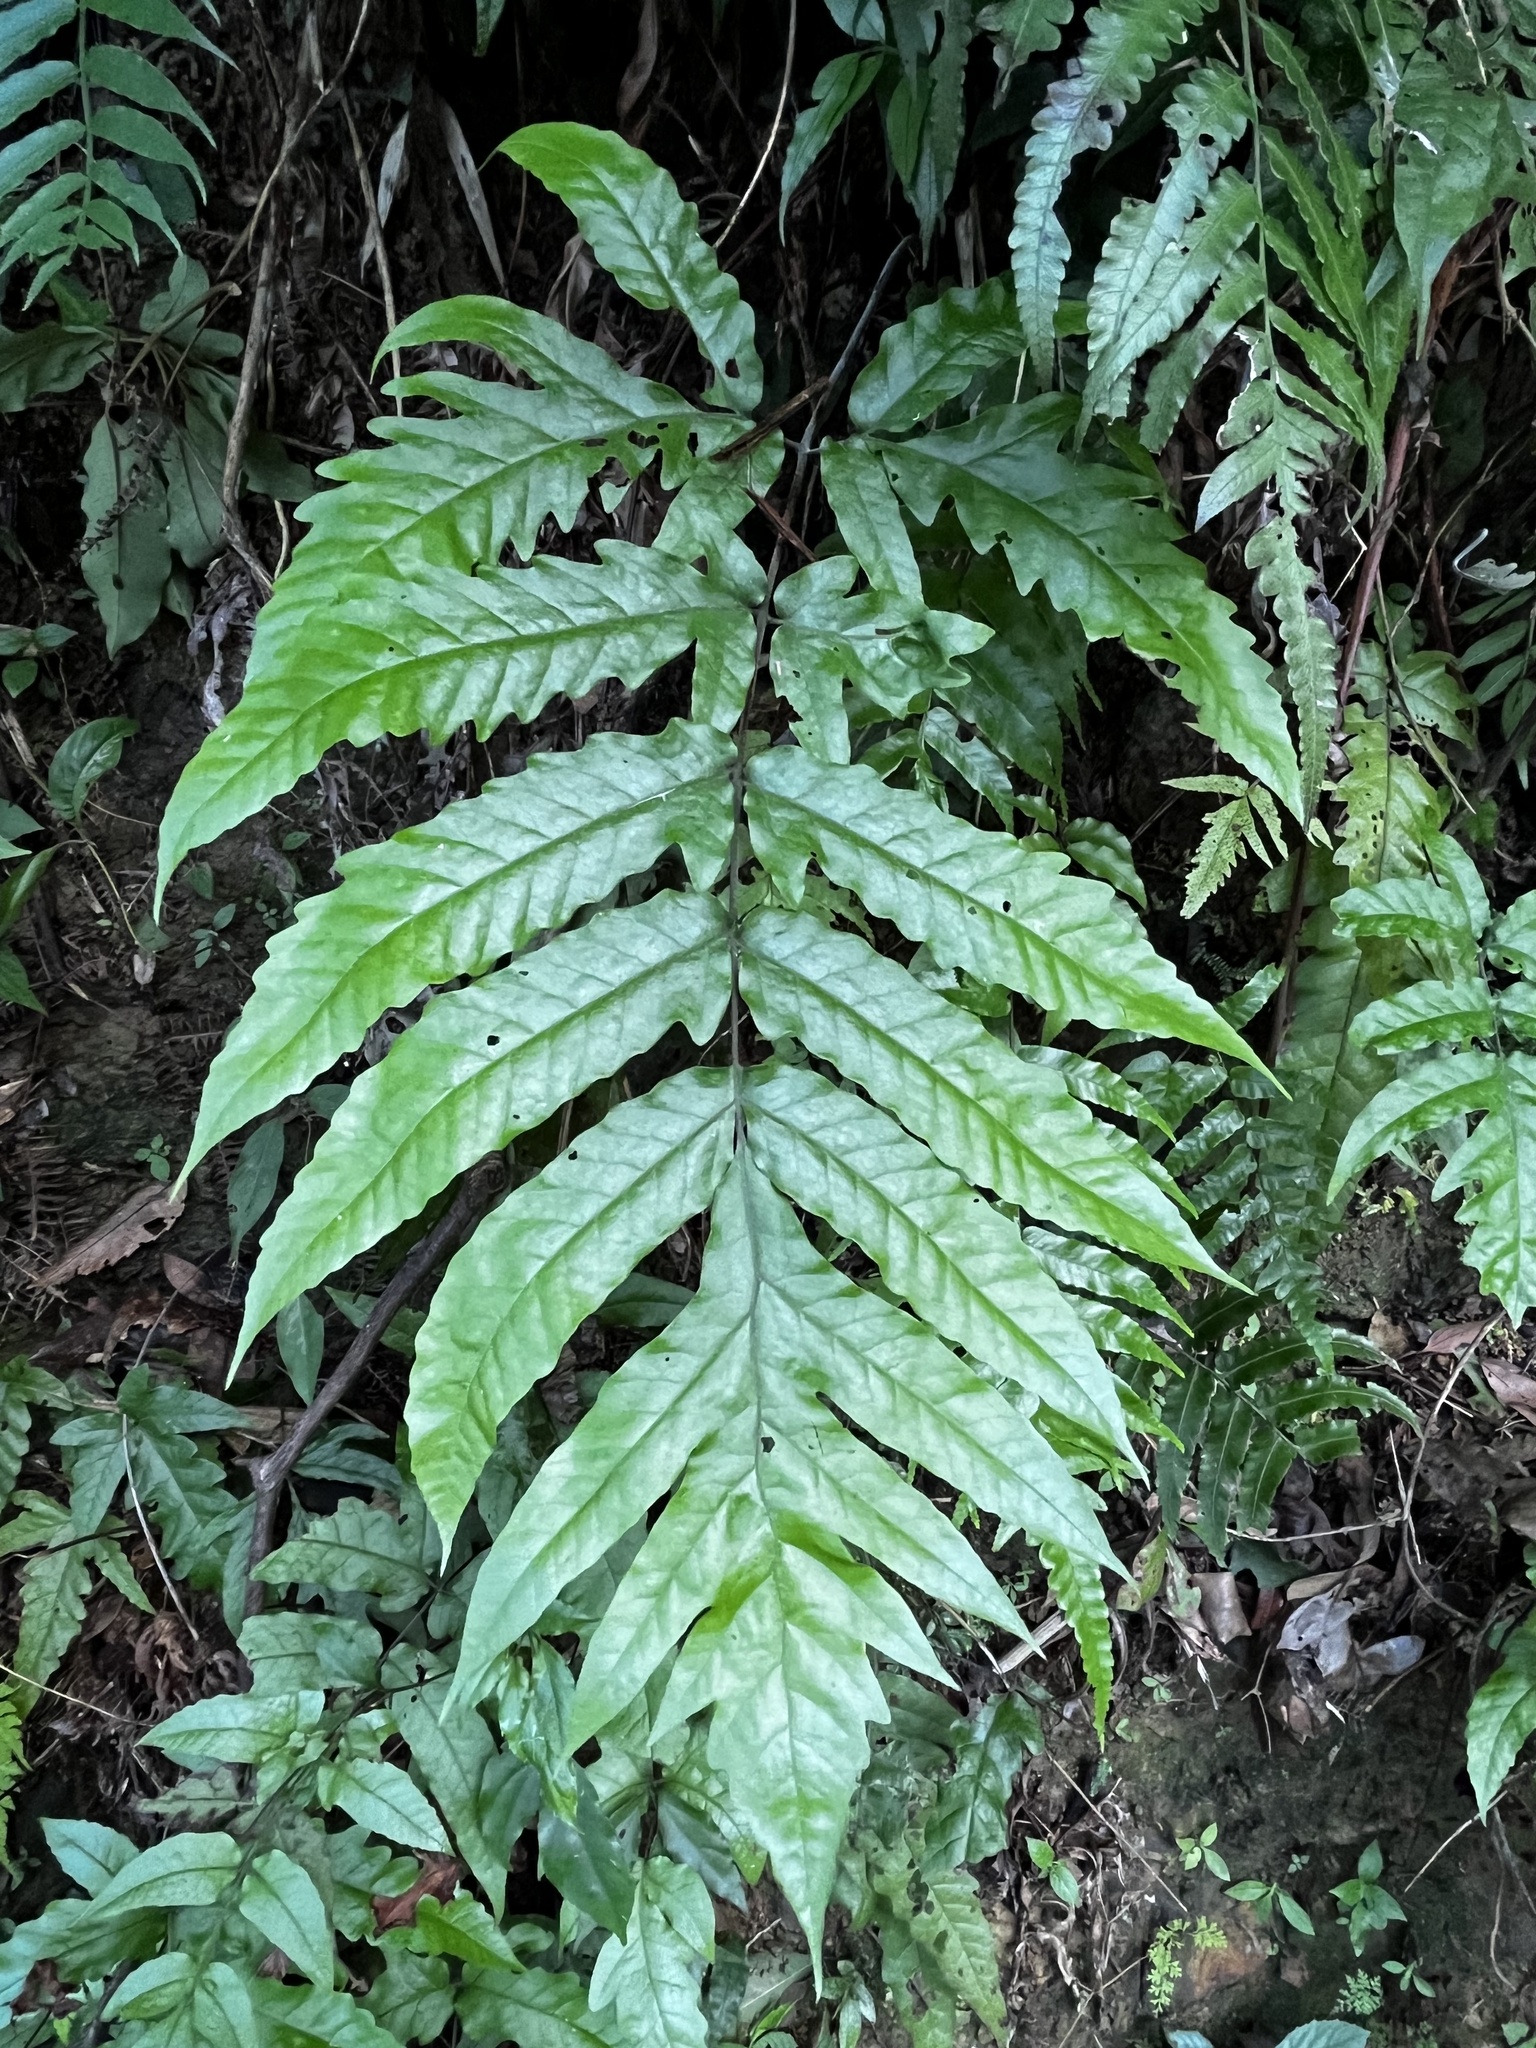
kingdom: Plantae
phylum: Tracheophyta
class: Polypodiopsida
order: Polypodiales
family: Tectariaceae
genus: Tectaria
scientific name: Tectaria phaeocaulis
